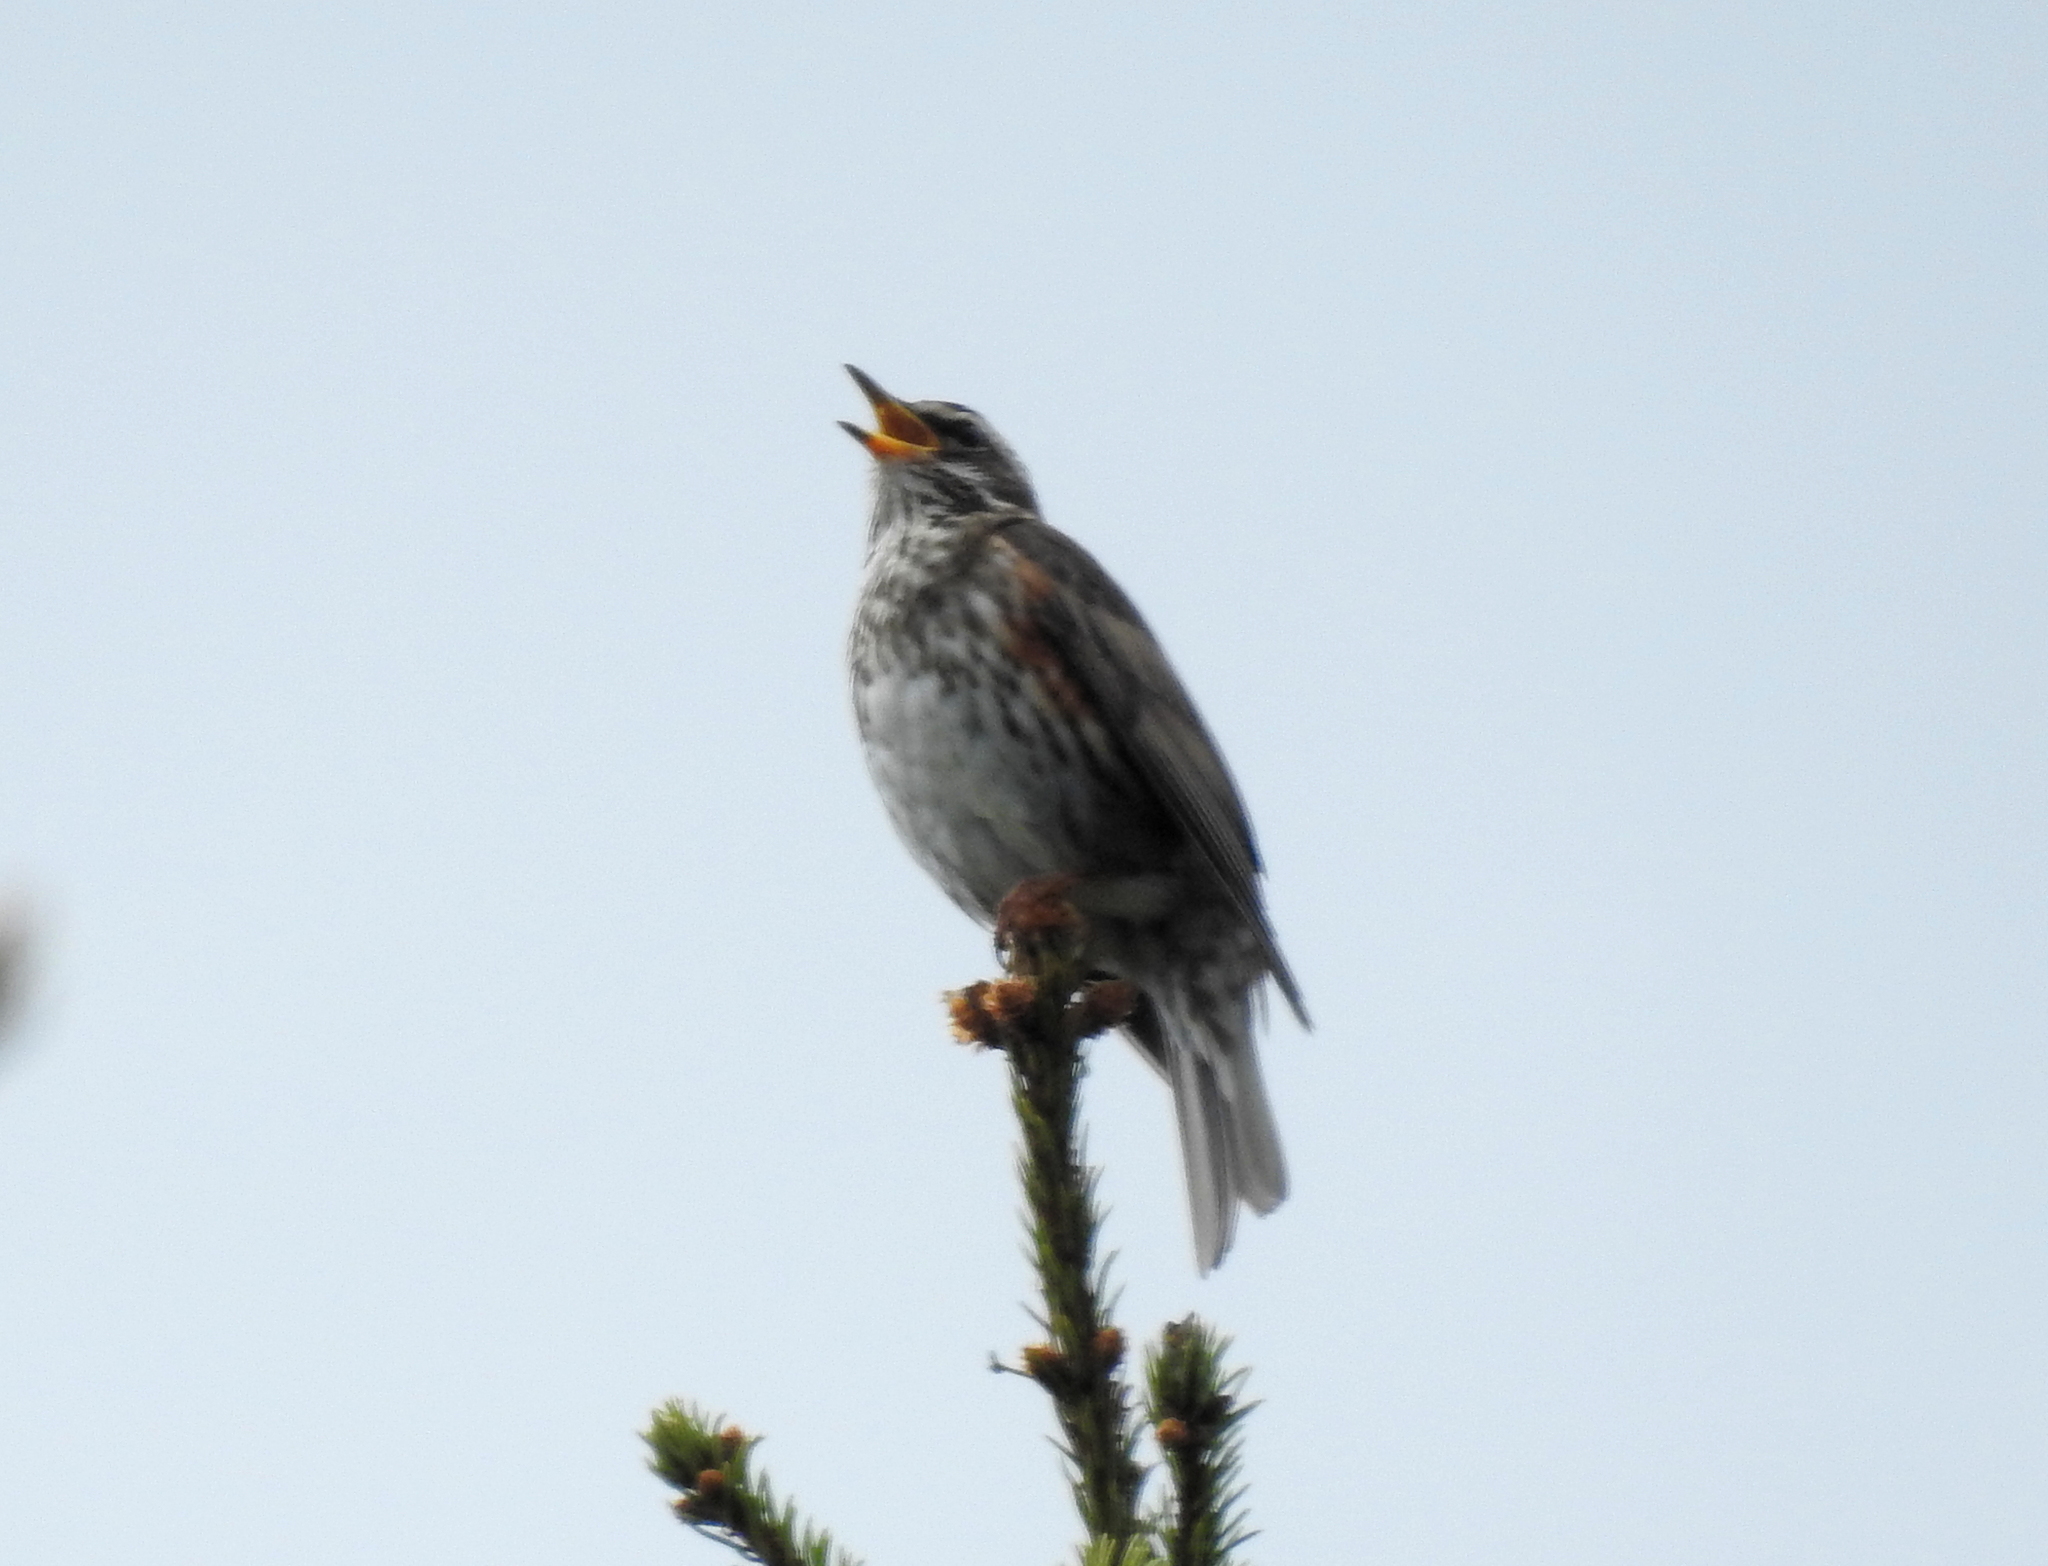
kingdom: Animalia
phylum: Chordata
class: Aves
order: Passeriformes
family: Turdidae
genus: Turdus
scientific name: Turdus iliacus
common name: Redwing
